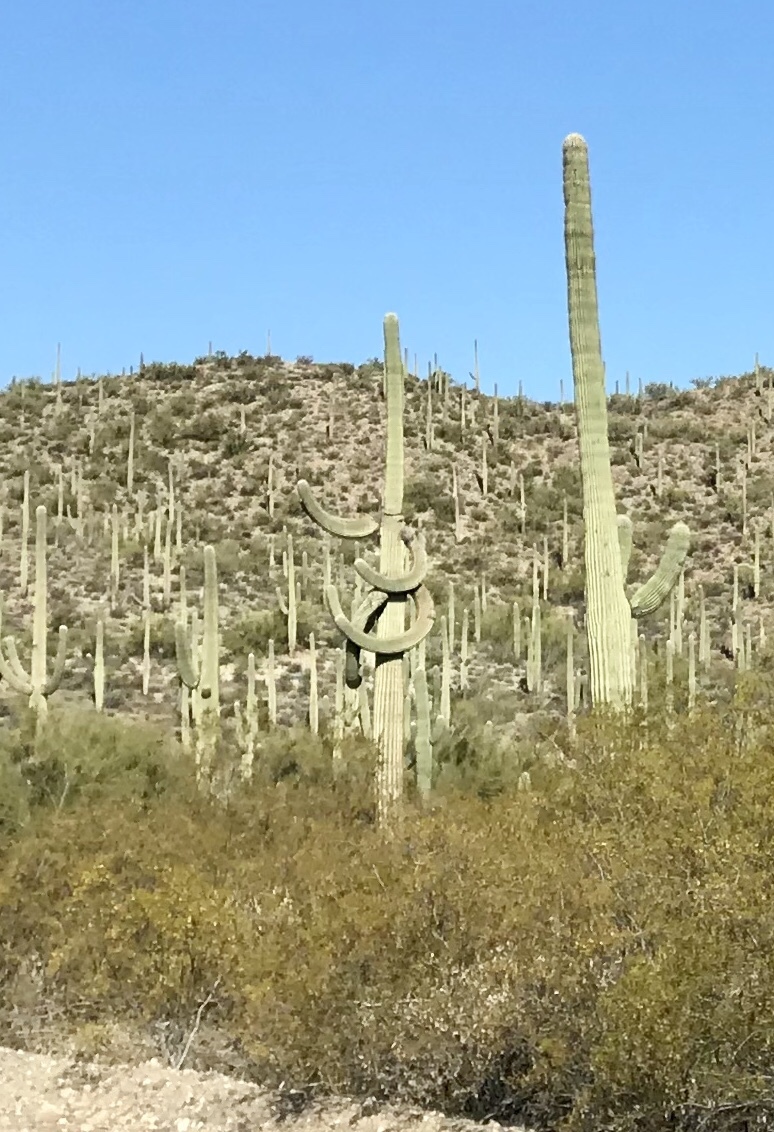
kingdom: Plantae
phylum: Tracheophyta
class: Magnoliopsida
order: Caryophyllales
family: Cactaceae
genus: Carnegiea
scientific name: Carnegiea gigantea
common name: Saguaro
